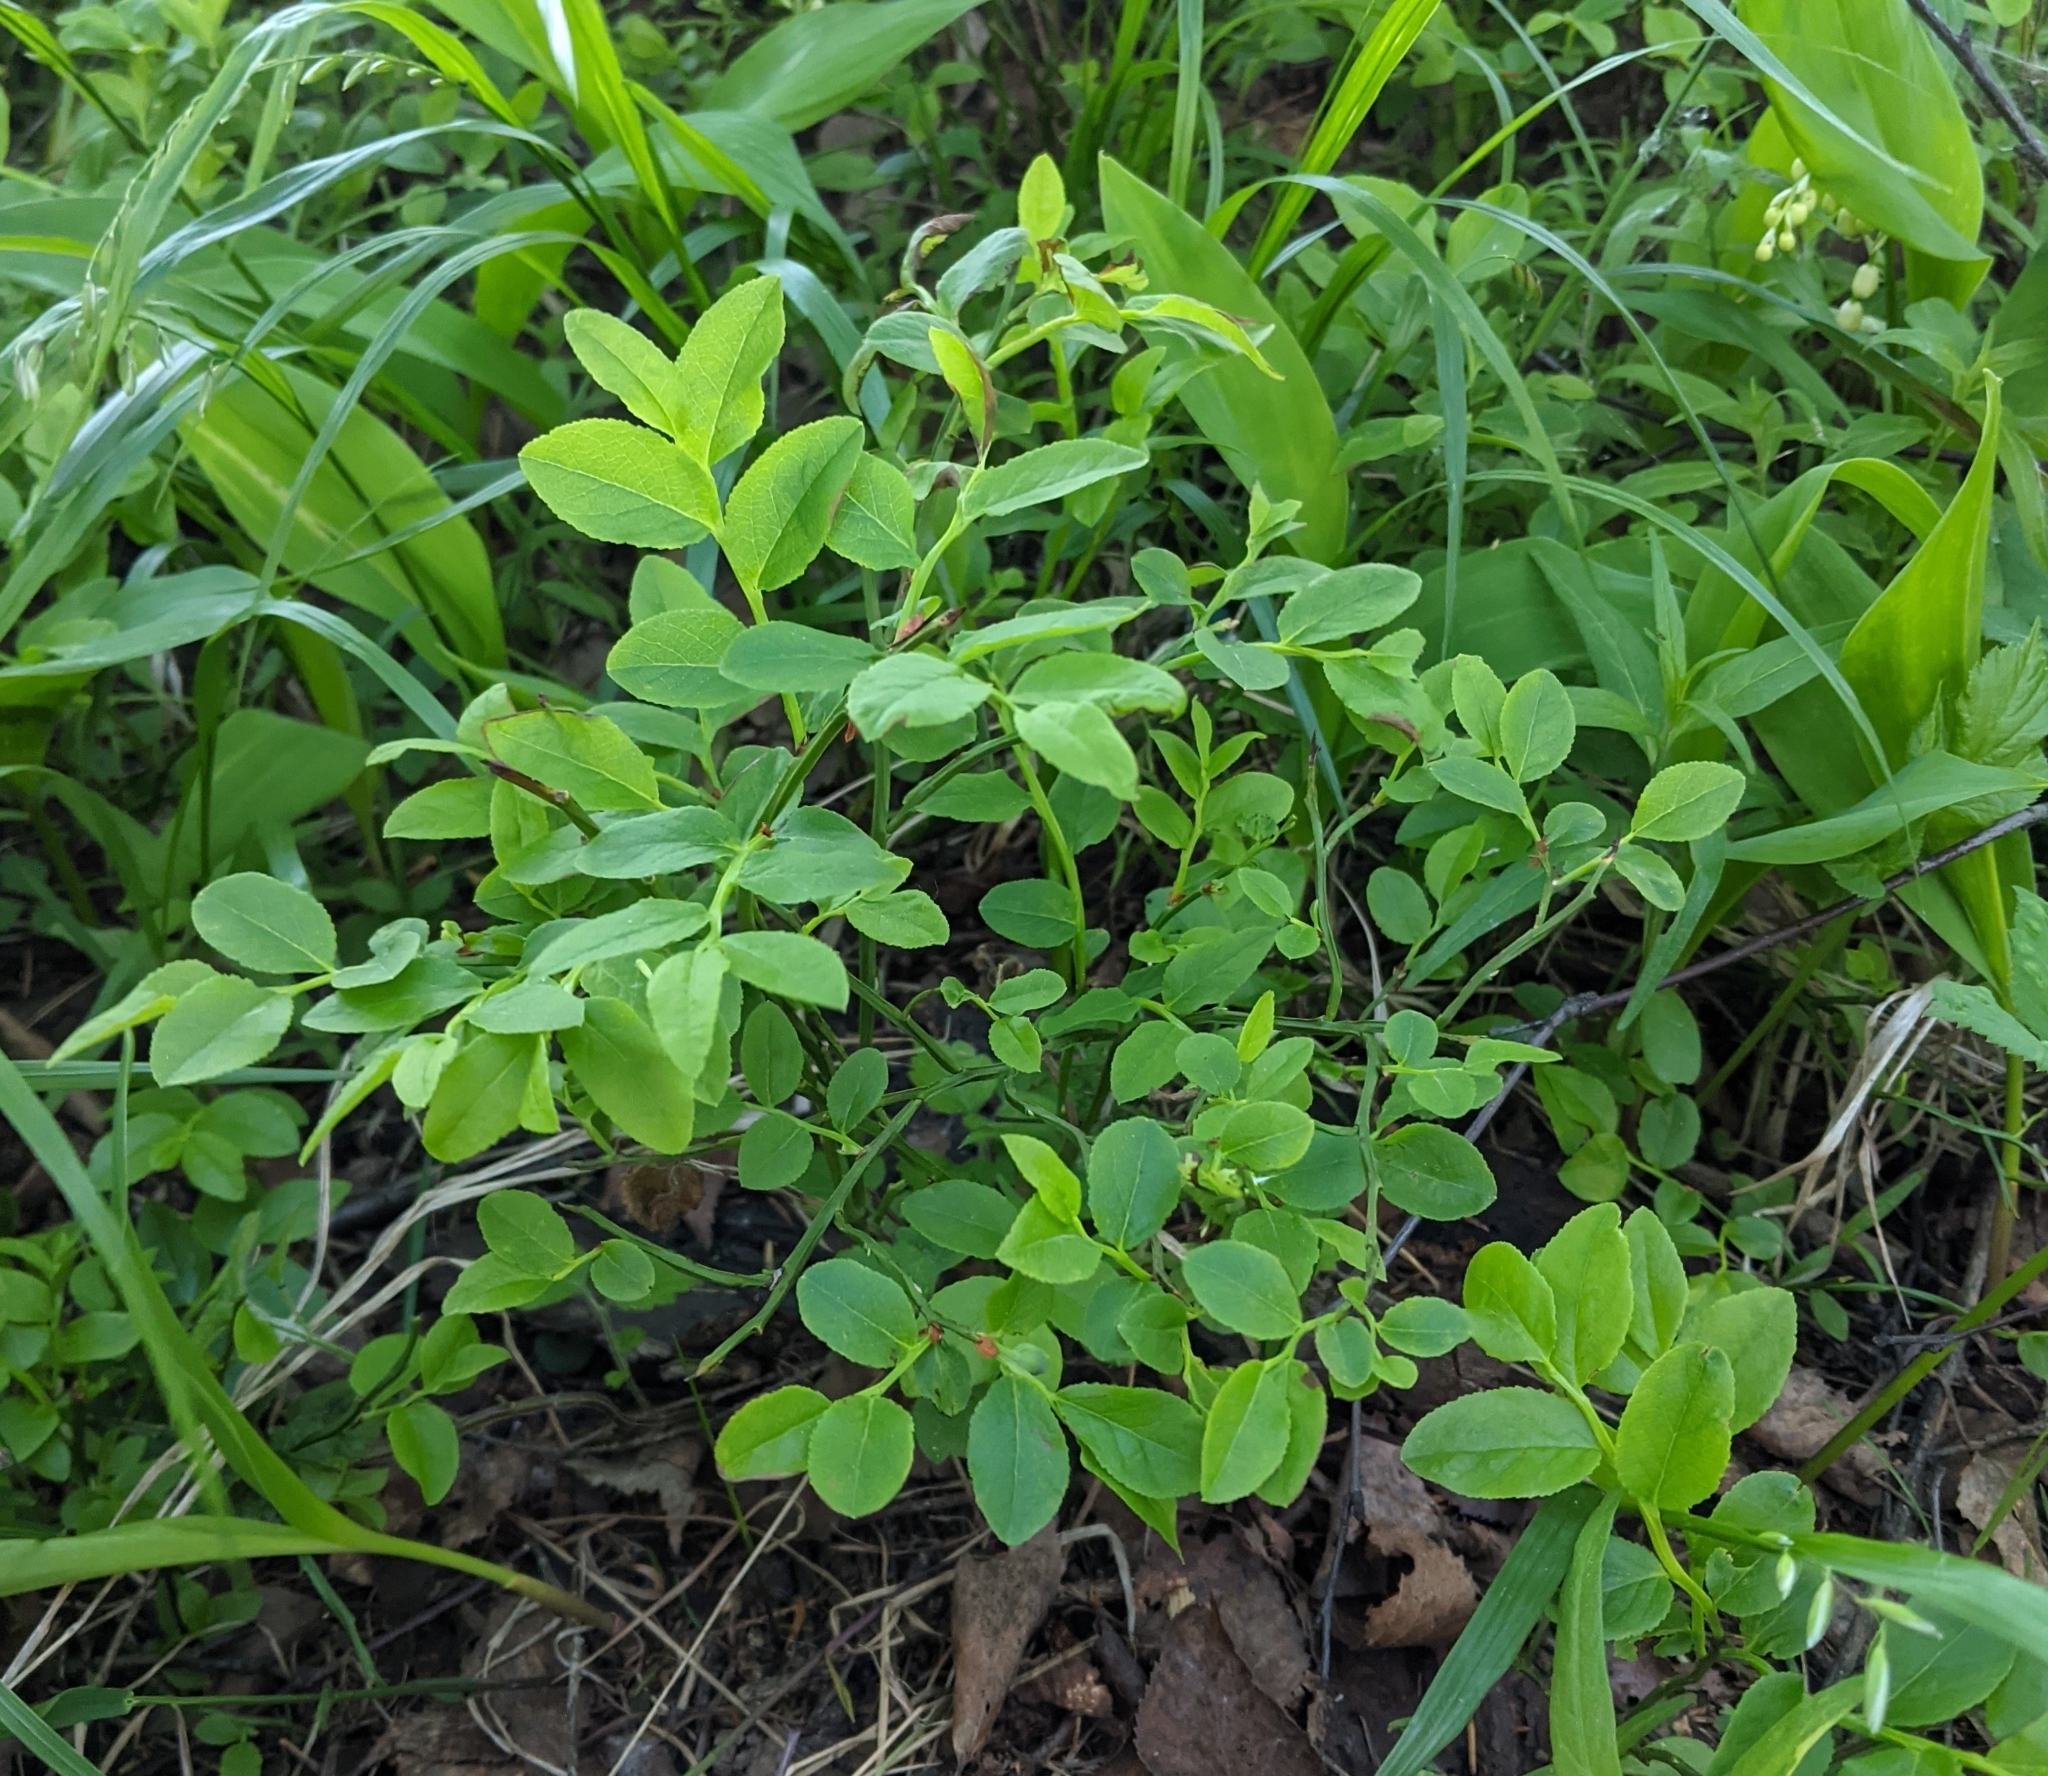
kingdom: Plantae
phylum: Tracheophyta
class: Magnoliopsida
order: Ericales
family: Ericaceae
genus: Vaccinium
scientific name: Vaccinium myrtillus
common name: Bilberry
